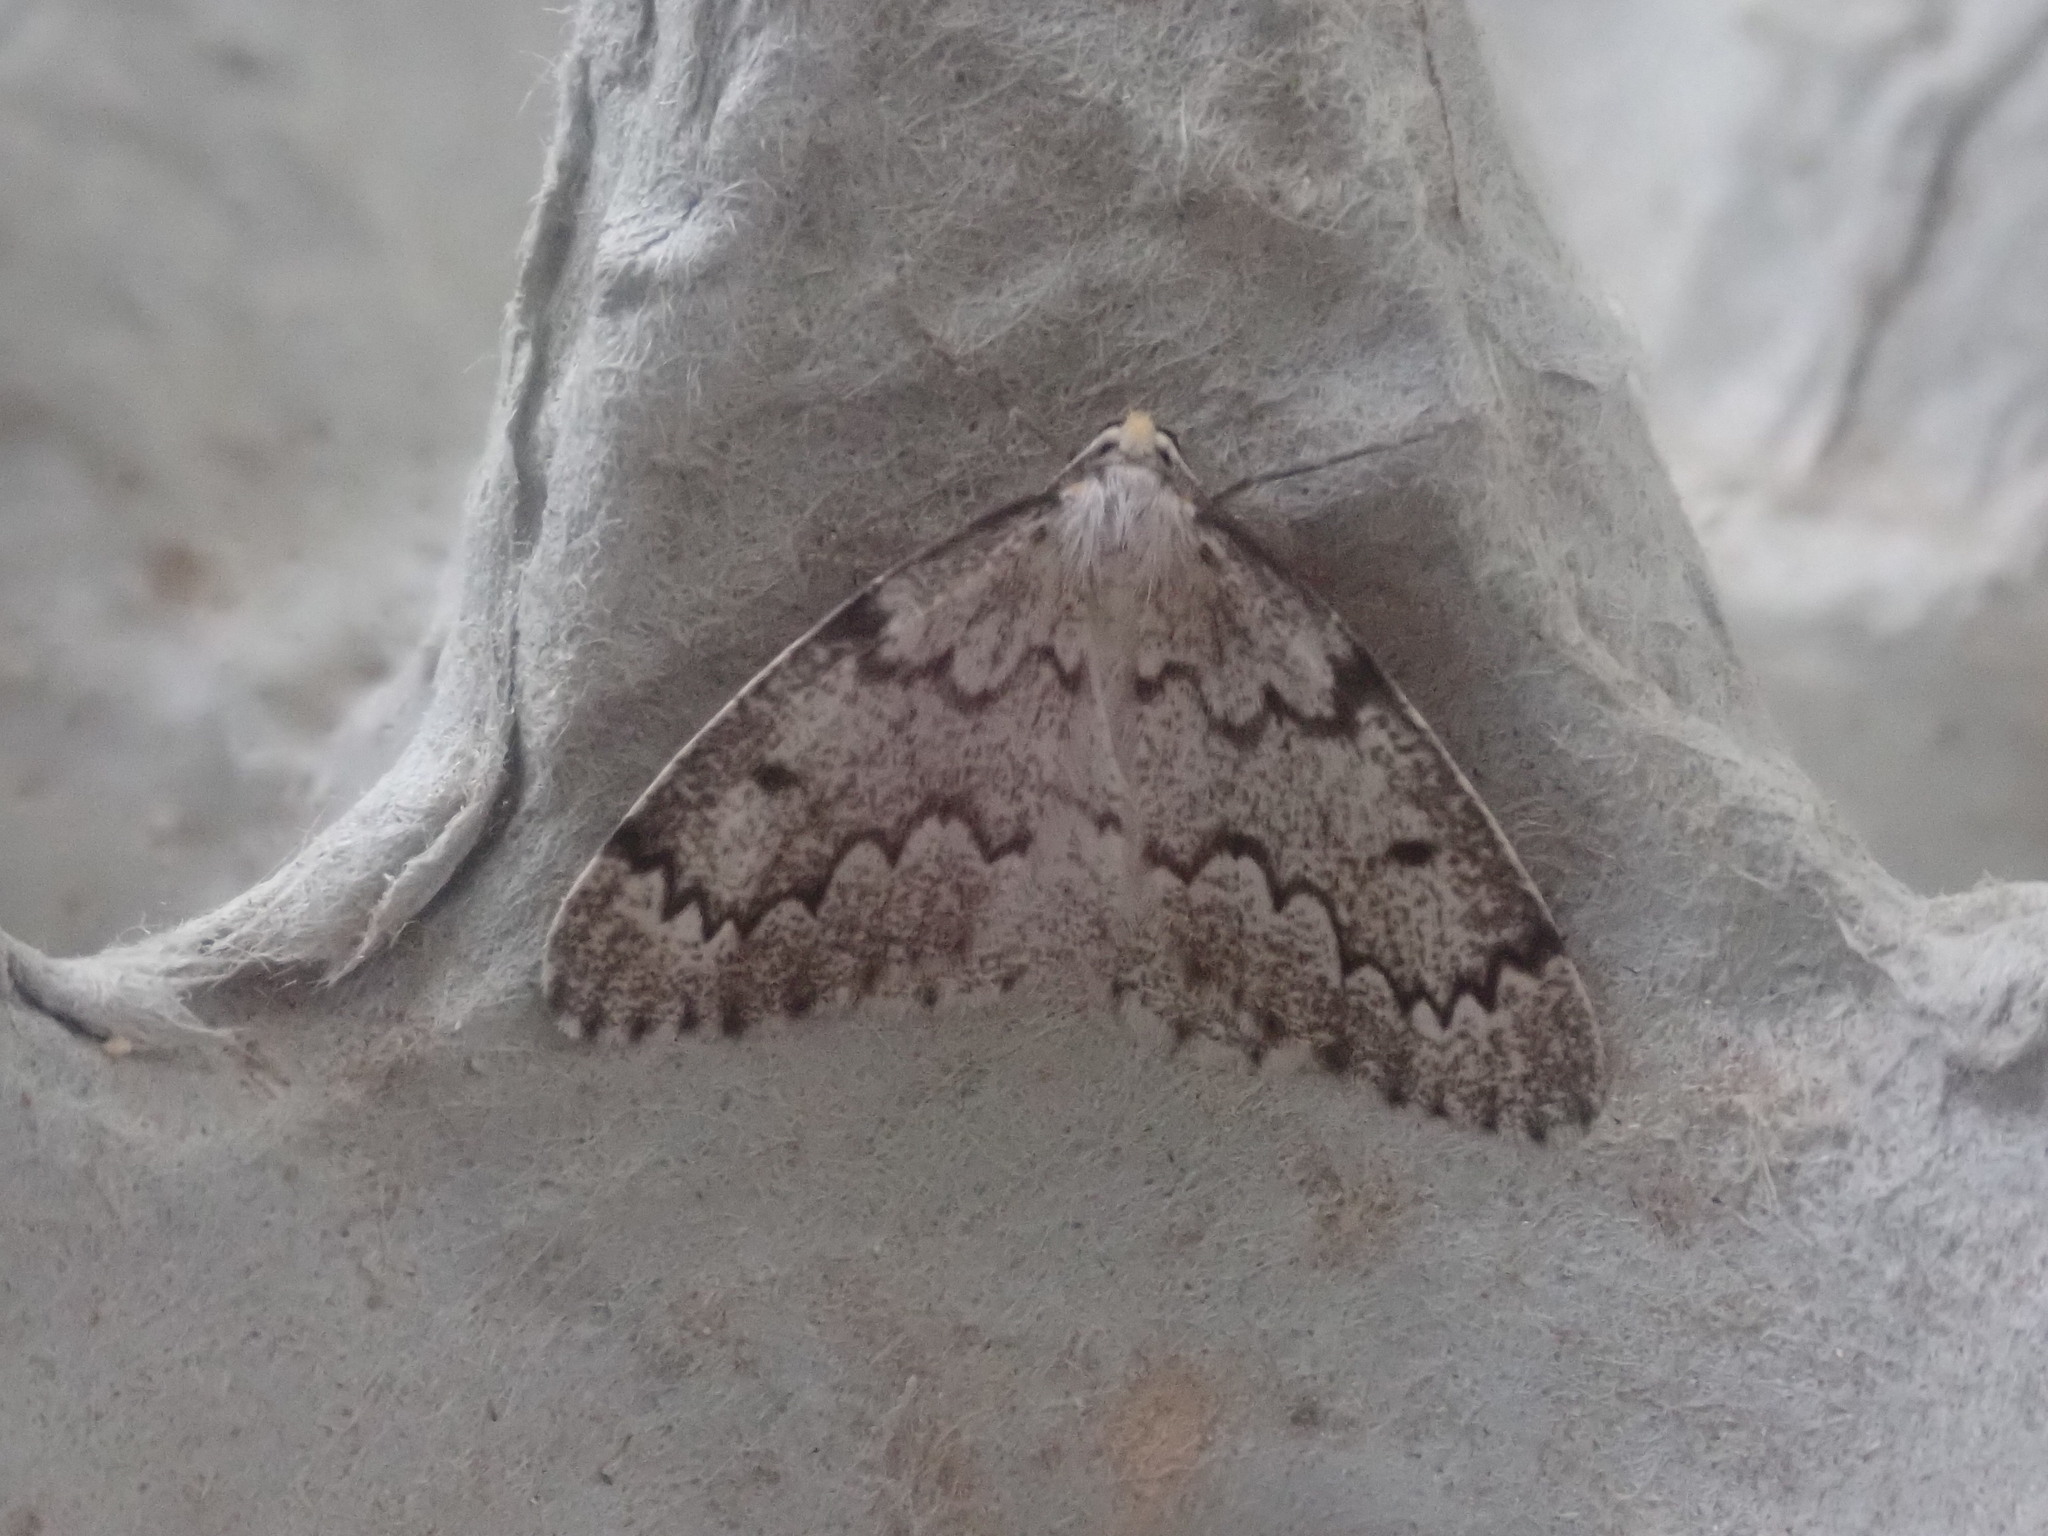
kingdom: Animalia
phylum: Arthropoda
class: Insecta
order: Lepidoptera
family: Geometridae
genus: Nepytia
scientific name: Nepytia canosaria
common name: False hemlock looper
